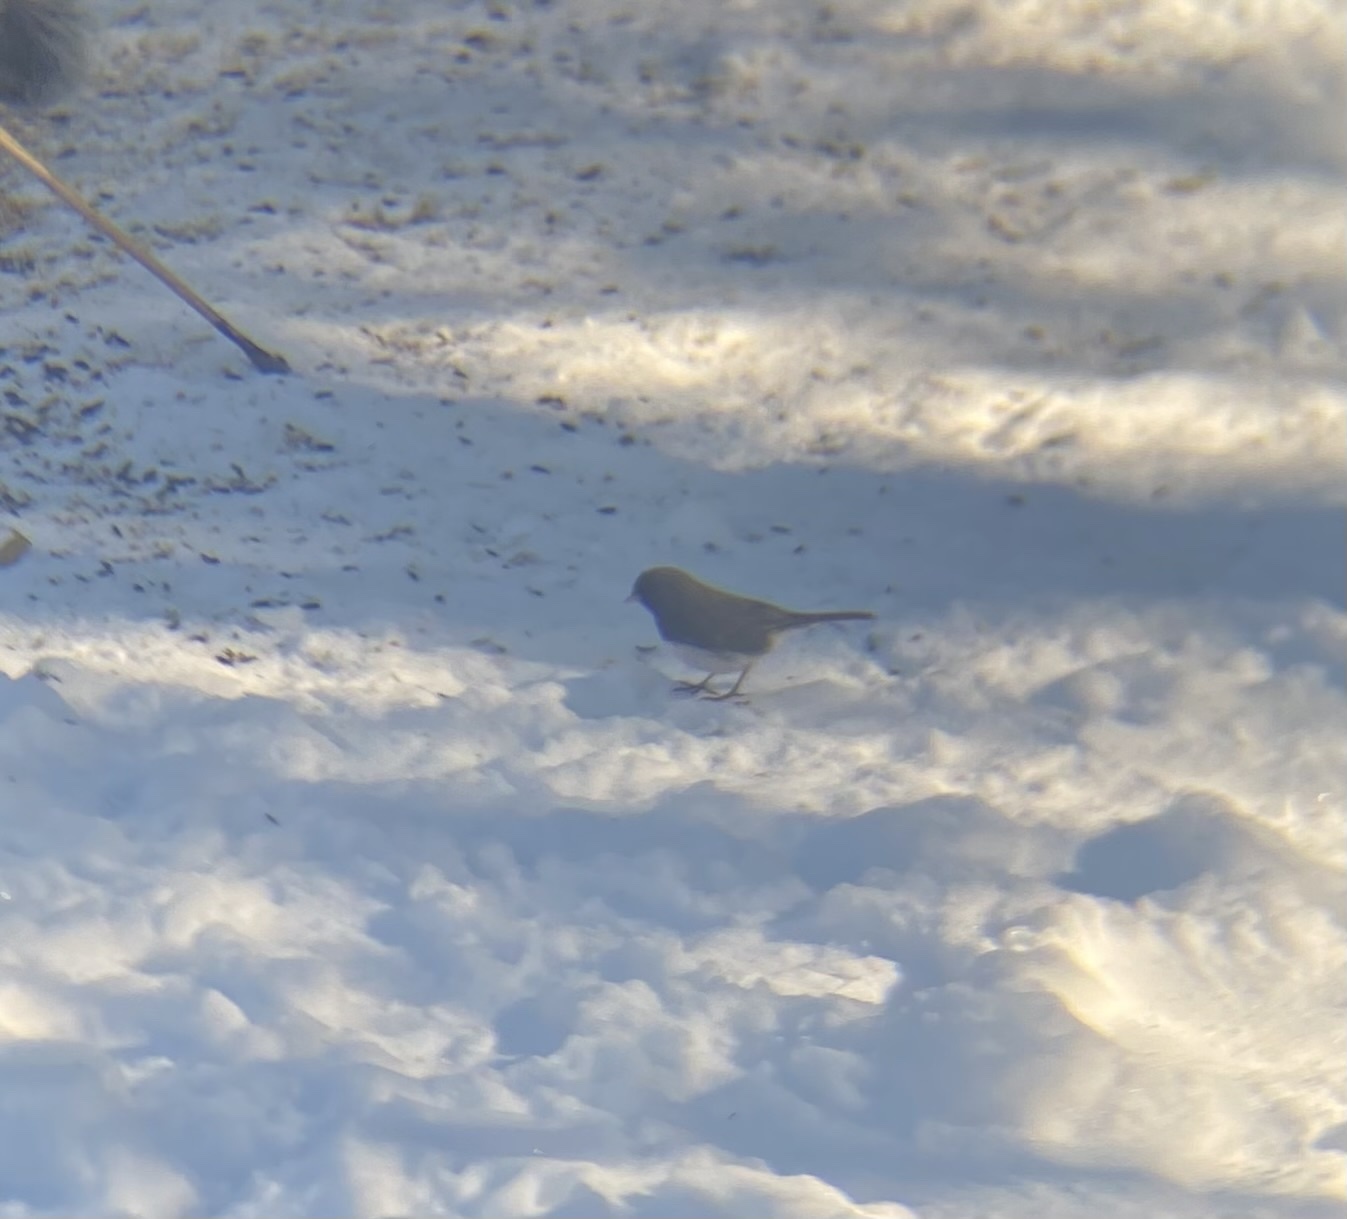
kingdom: Animalia
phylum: Chordata
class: Aves
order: Passeriformes
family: Passerellidae
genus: Junco
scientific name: Junco hyemalis
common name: Dark-eyed junco
